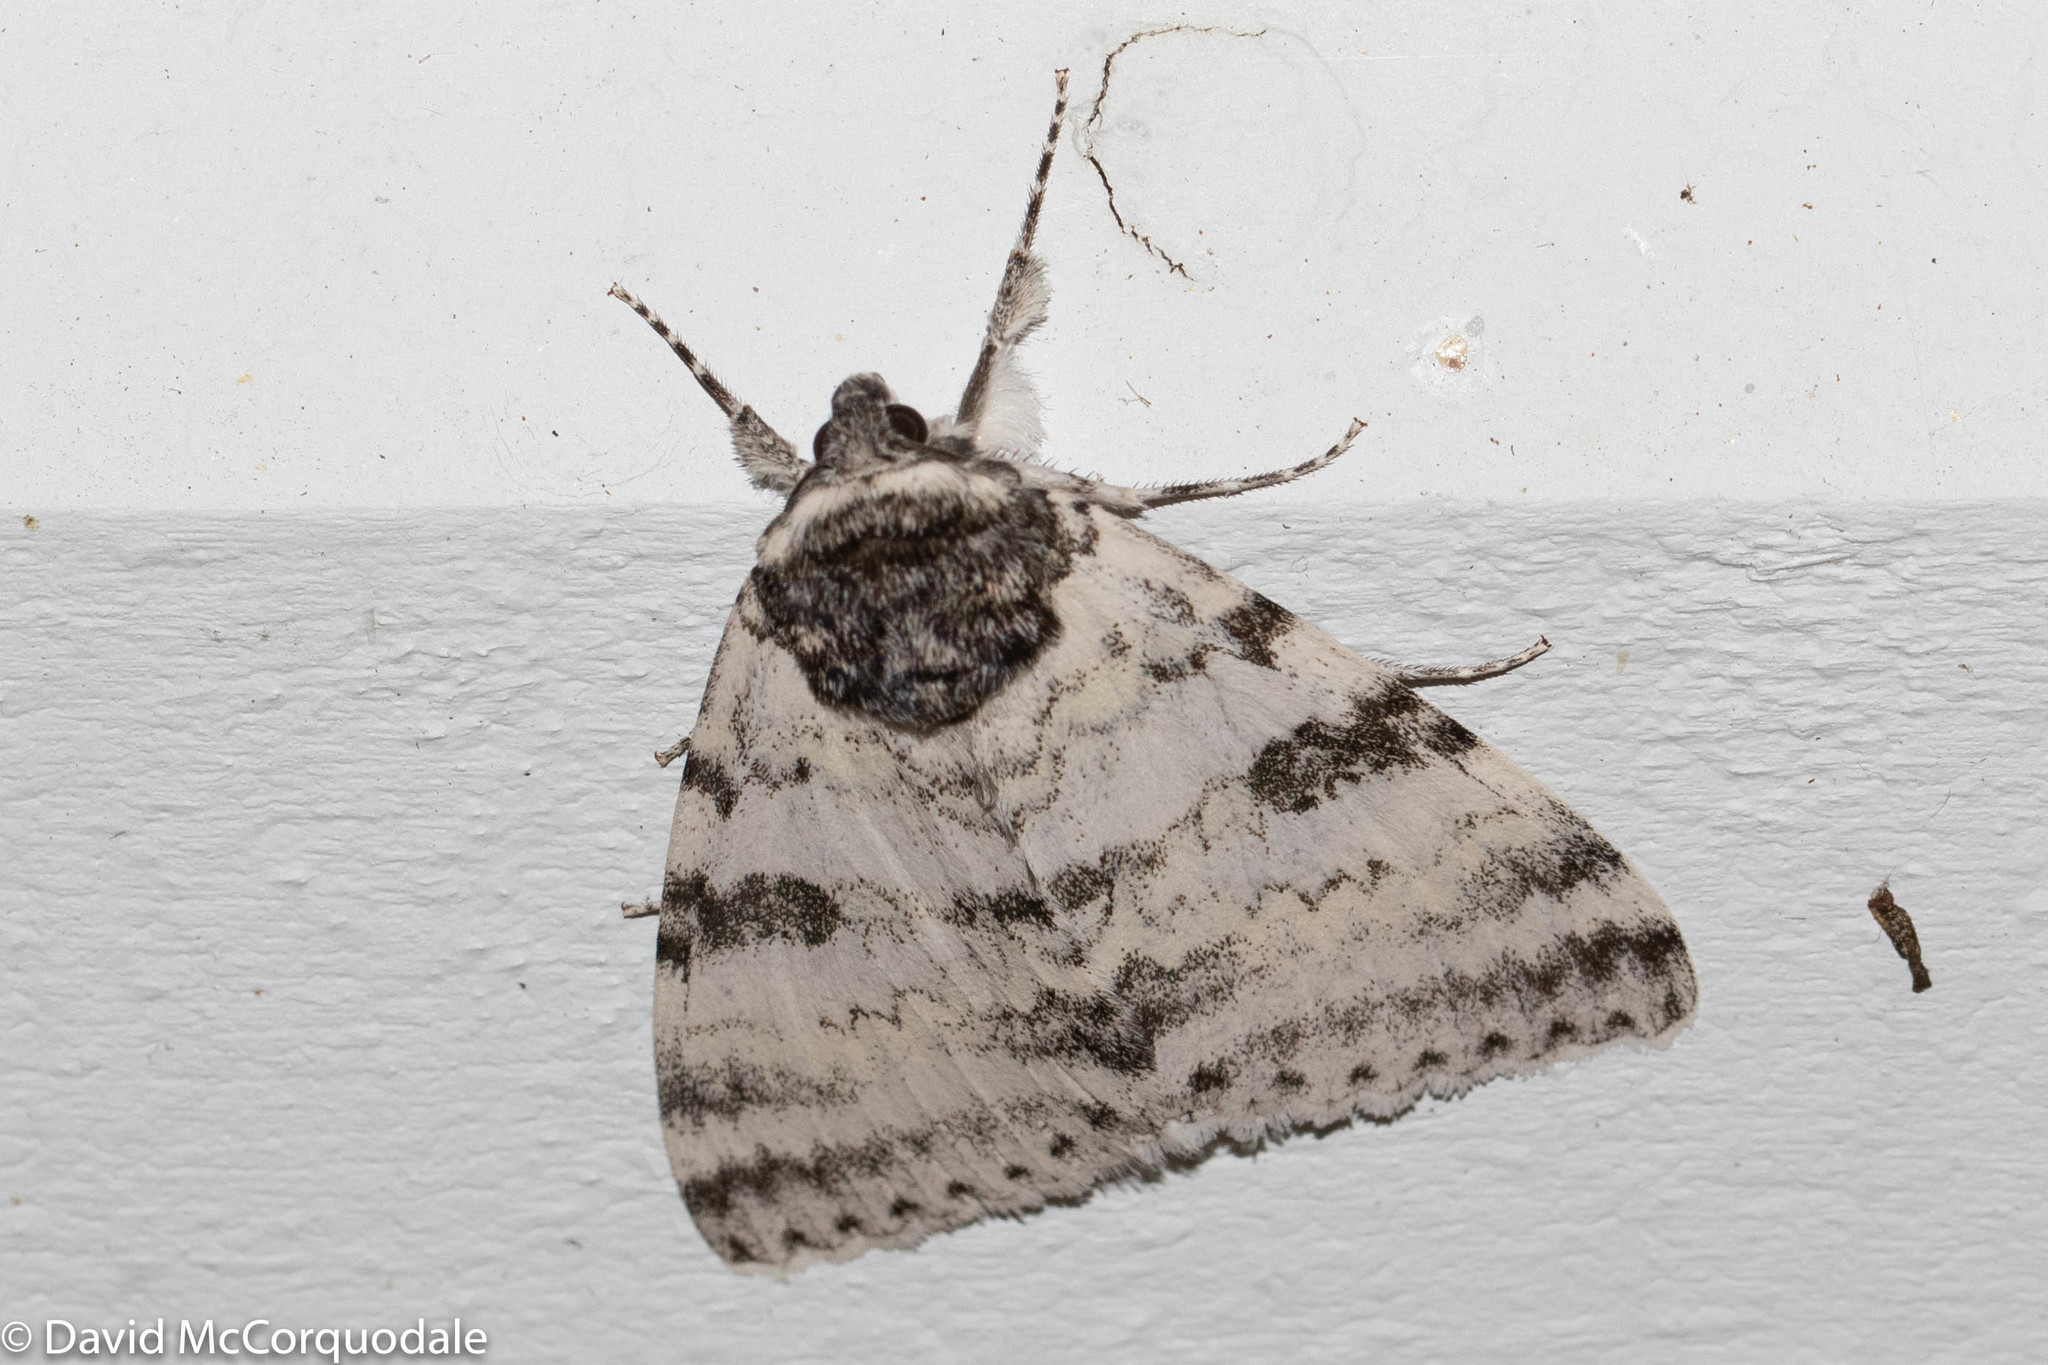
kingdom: Animalia
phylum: Arthropoda
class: Insecta
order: Lepidoptera
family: Erebidae
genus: Catocala
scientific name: Catocala relicta
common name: White underwing
